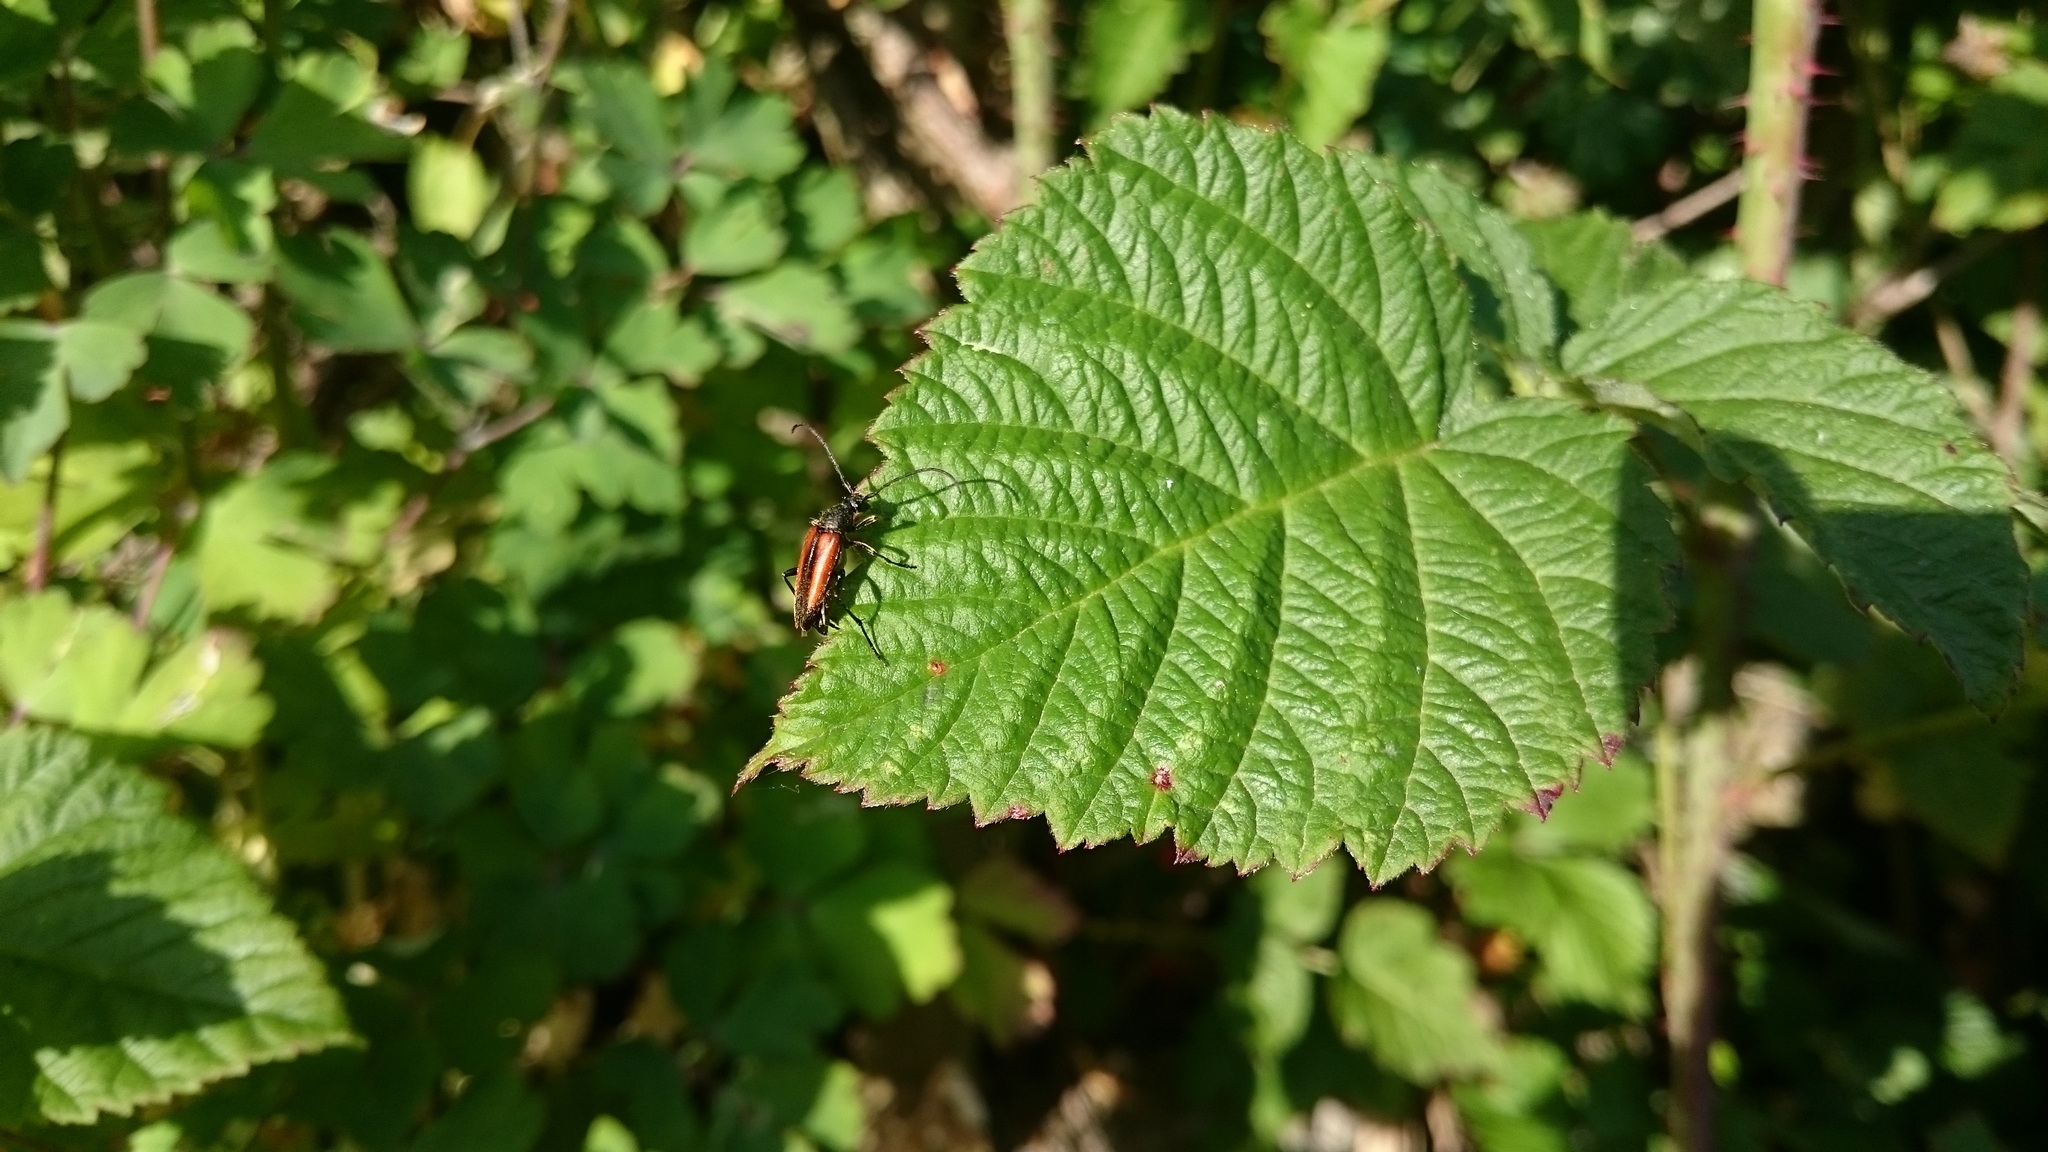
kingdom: Animalia
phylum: Arthropoda
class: Insecta
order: Coleoptera
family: Cerambycidae
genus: Stenurella
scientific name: Stenurella melanura
